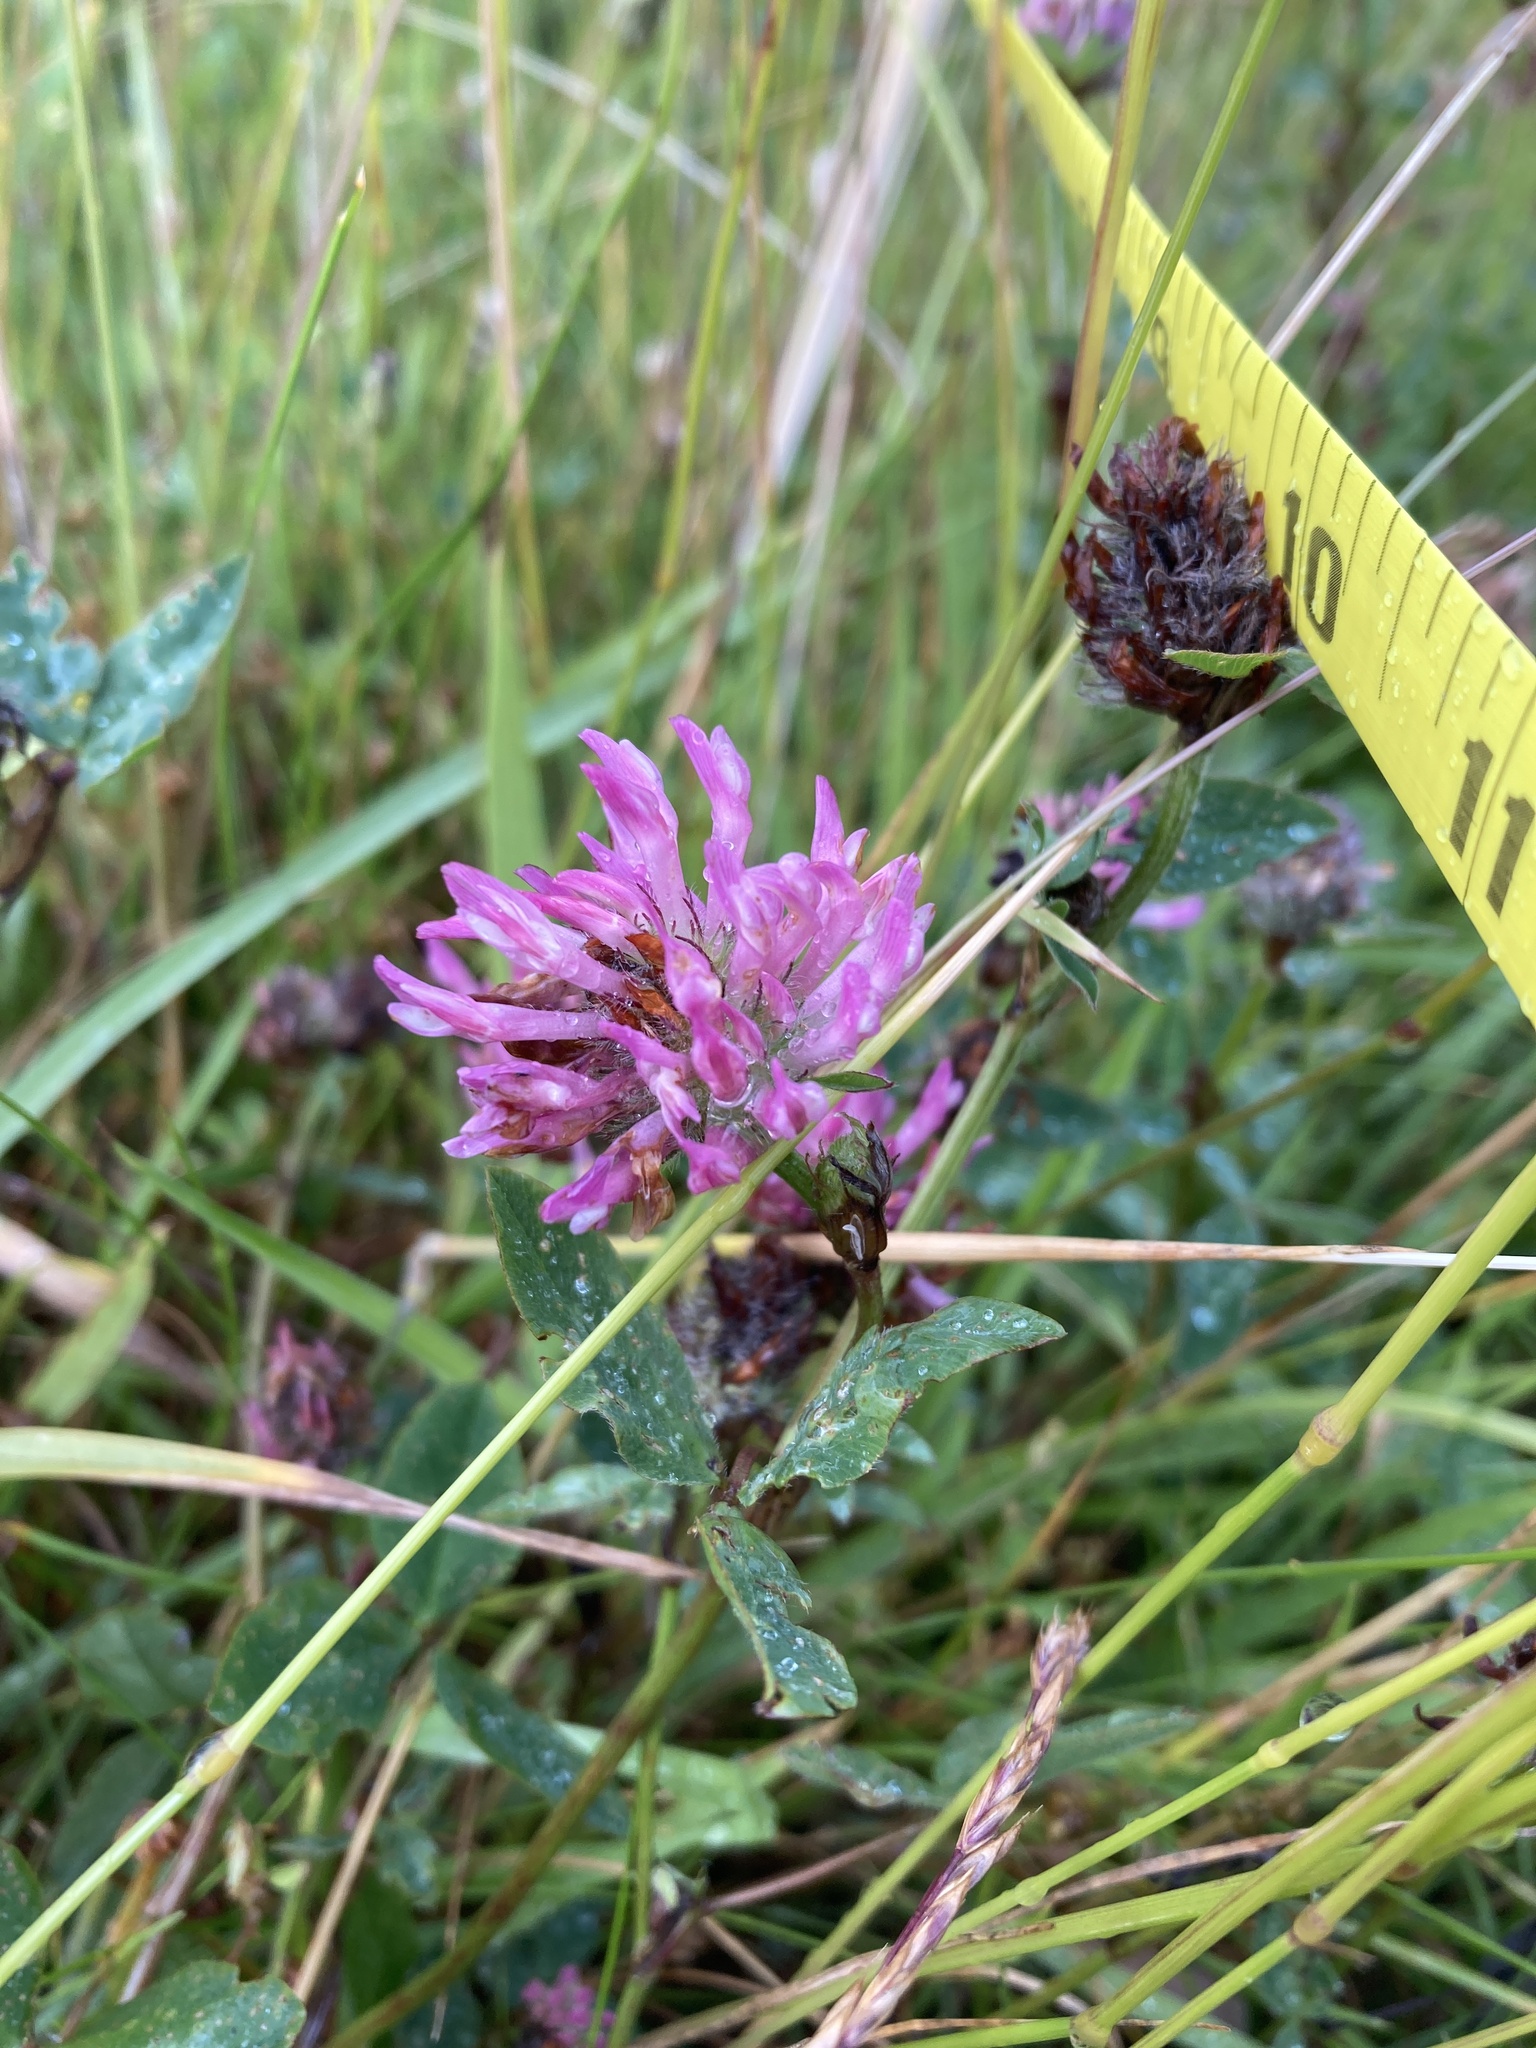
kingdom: Plantae
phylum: Tracheophyta
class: Magnoliopsida
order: Fabales
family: Fabaceae
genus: Trifolium
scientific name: Trifolium pratense
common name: Red clover
